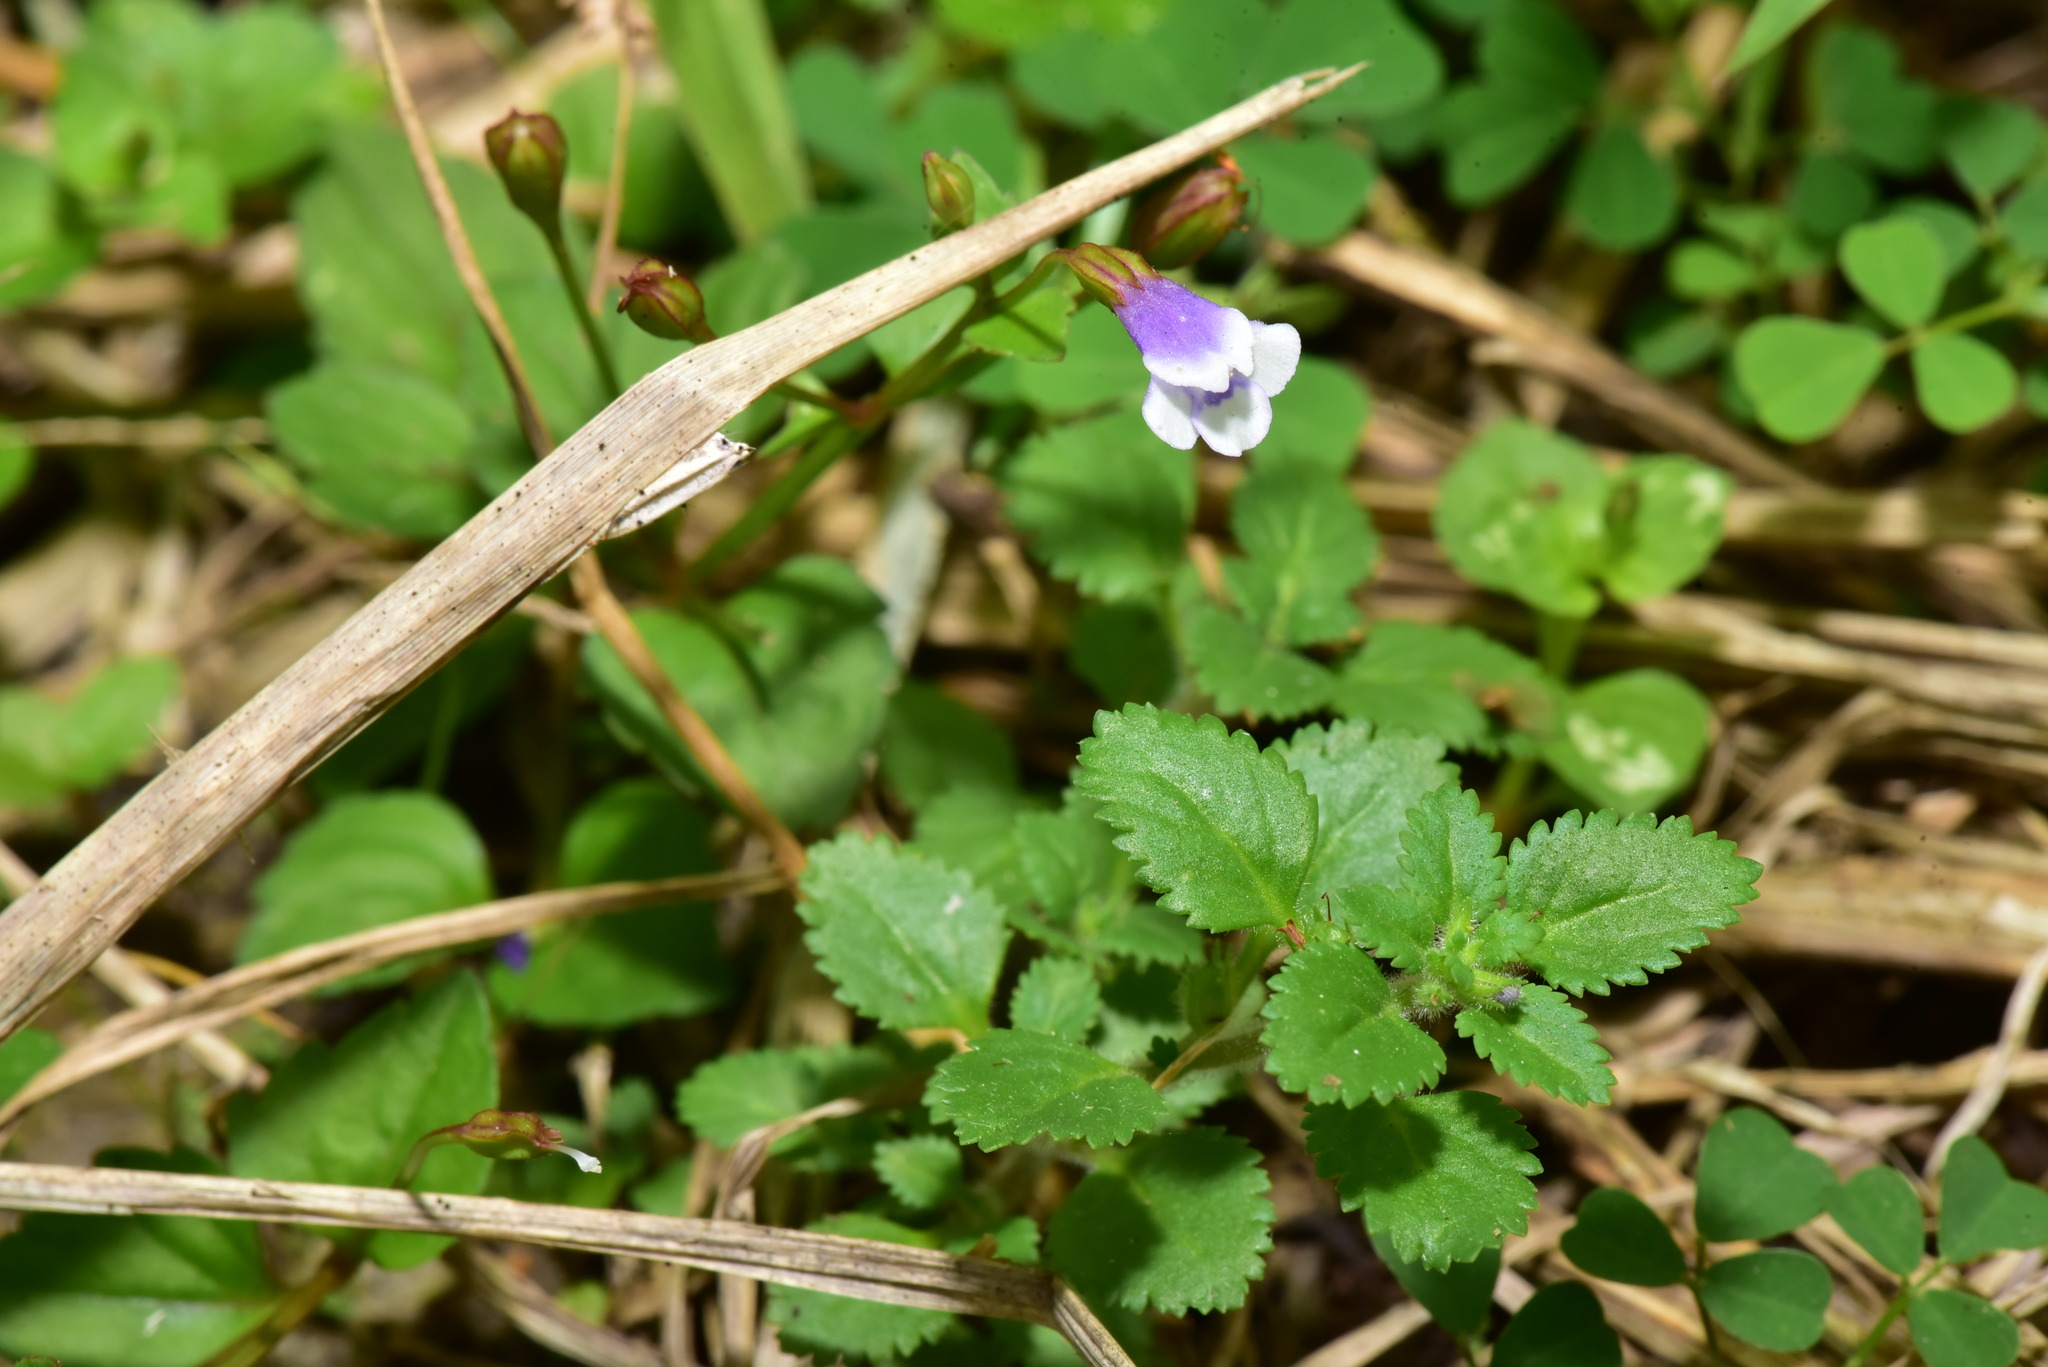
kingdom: Plantae
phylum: Tracheophyta
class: Magnoliopsida
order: Lamiales
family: Linderniaceae
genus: Torenia
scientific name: Torenia crustacea
